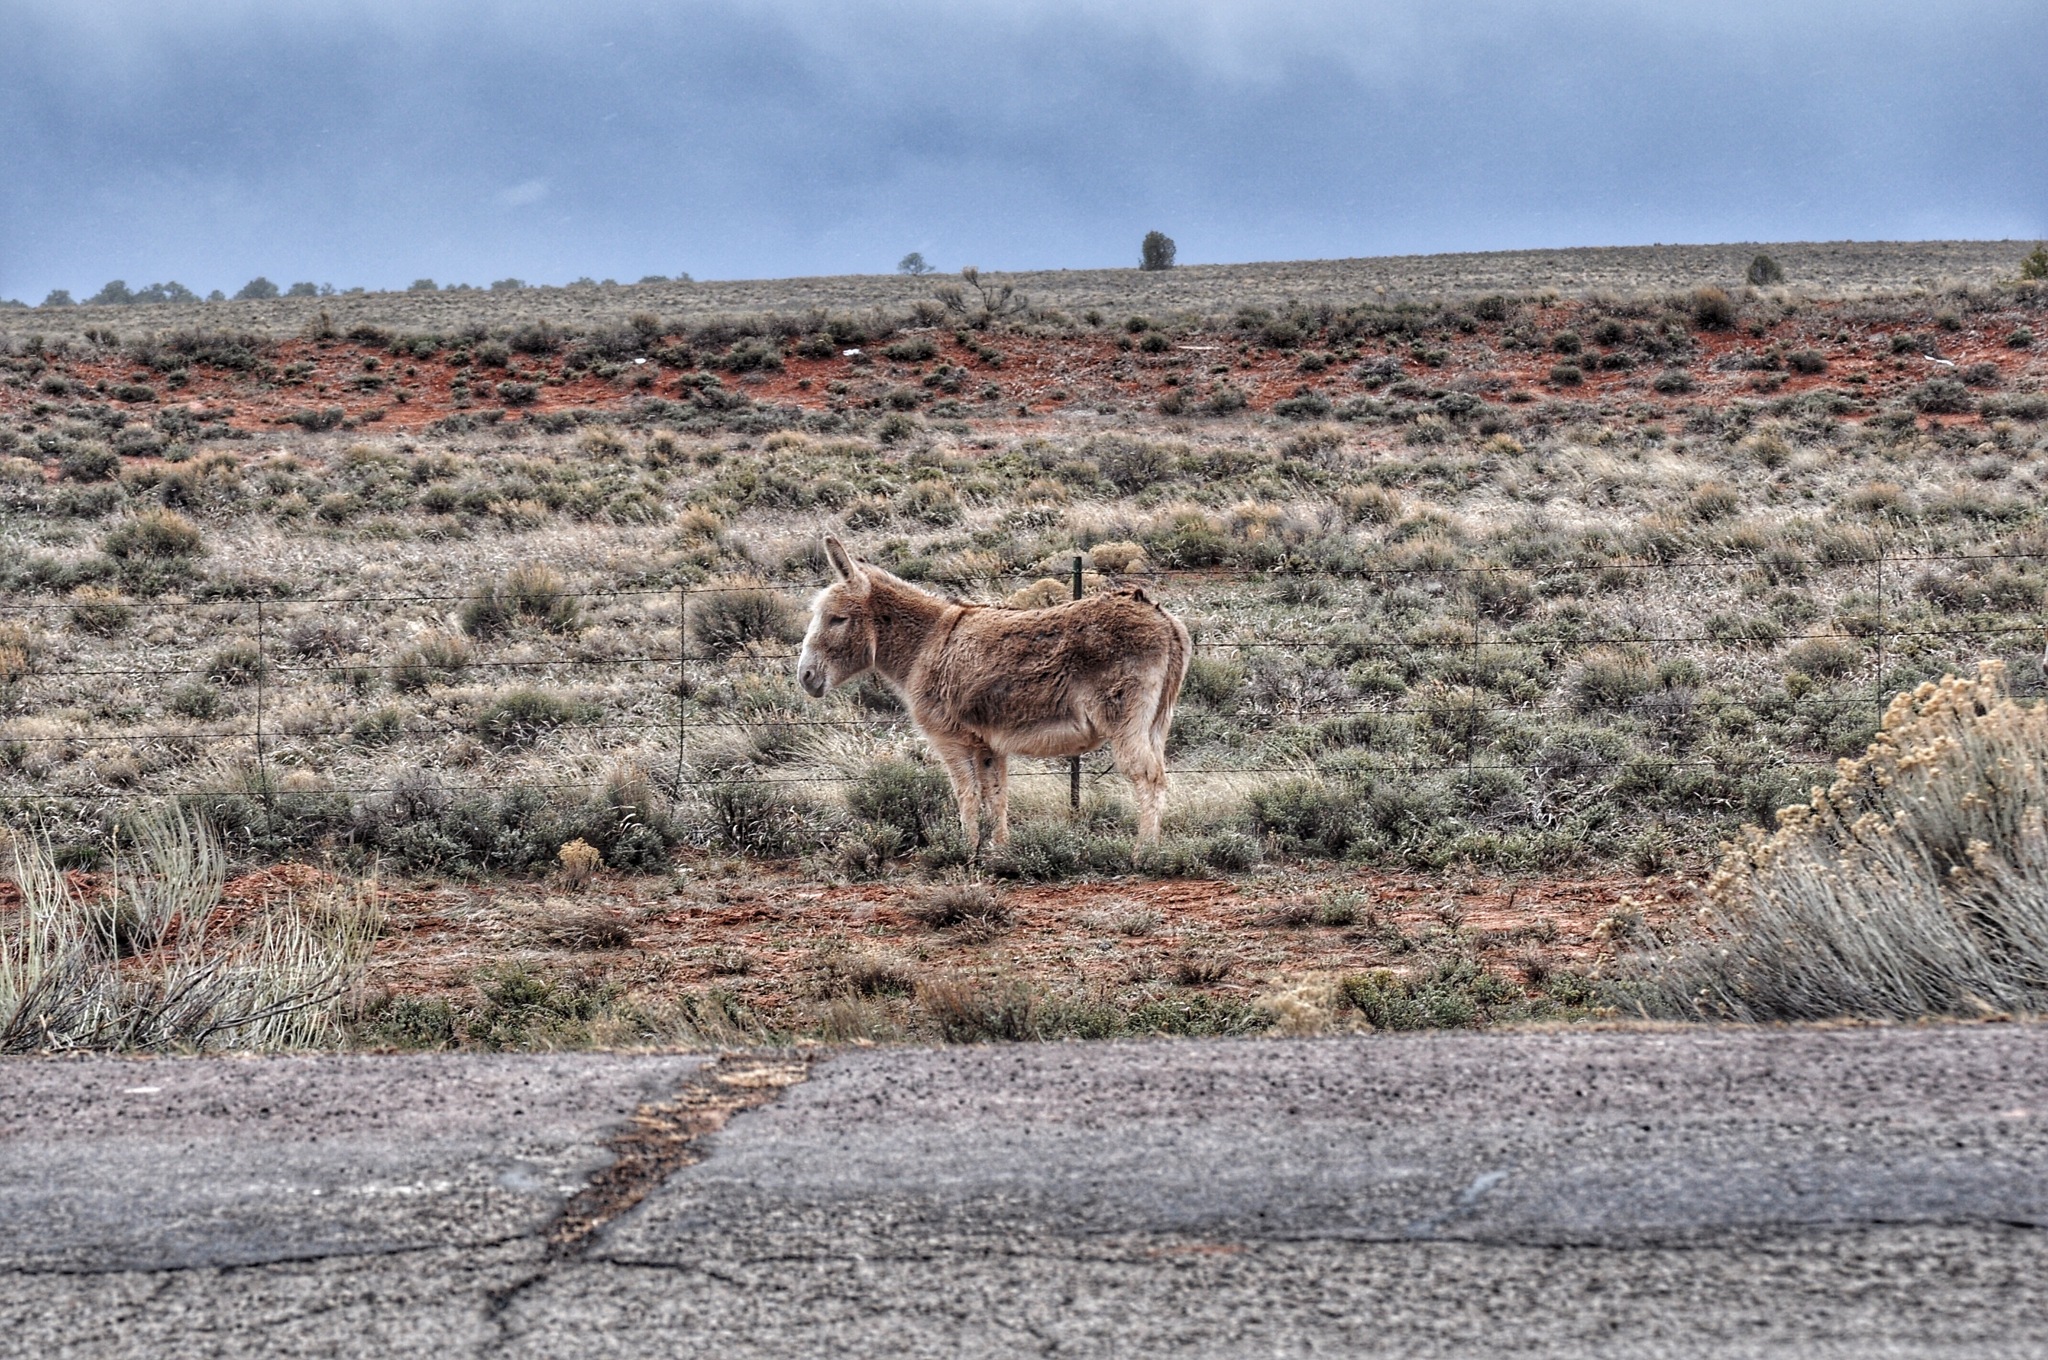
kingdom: Animalia
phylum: Chordata
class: Mammalia
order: Perissodactyla
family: Equidae
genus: Equus
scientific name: Equus asinus
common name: Ass
